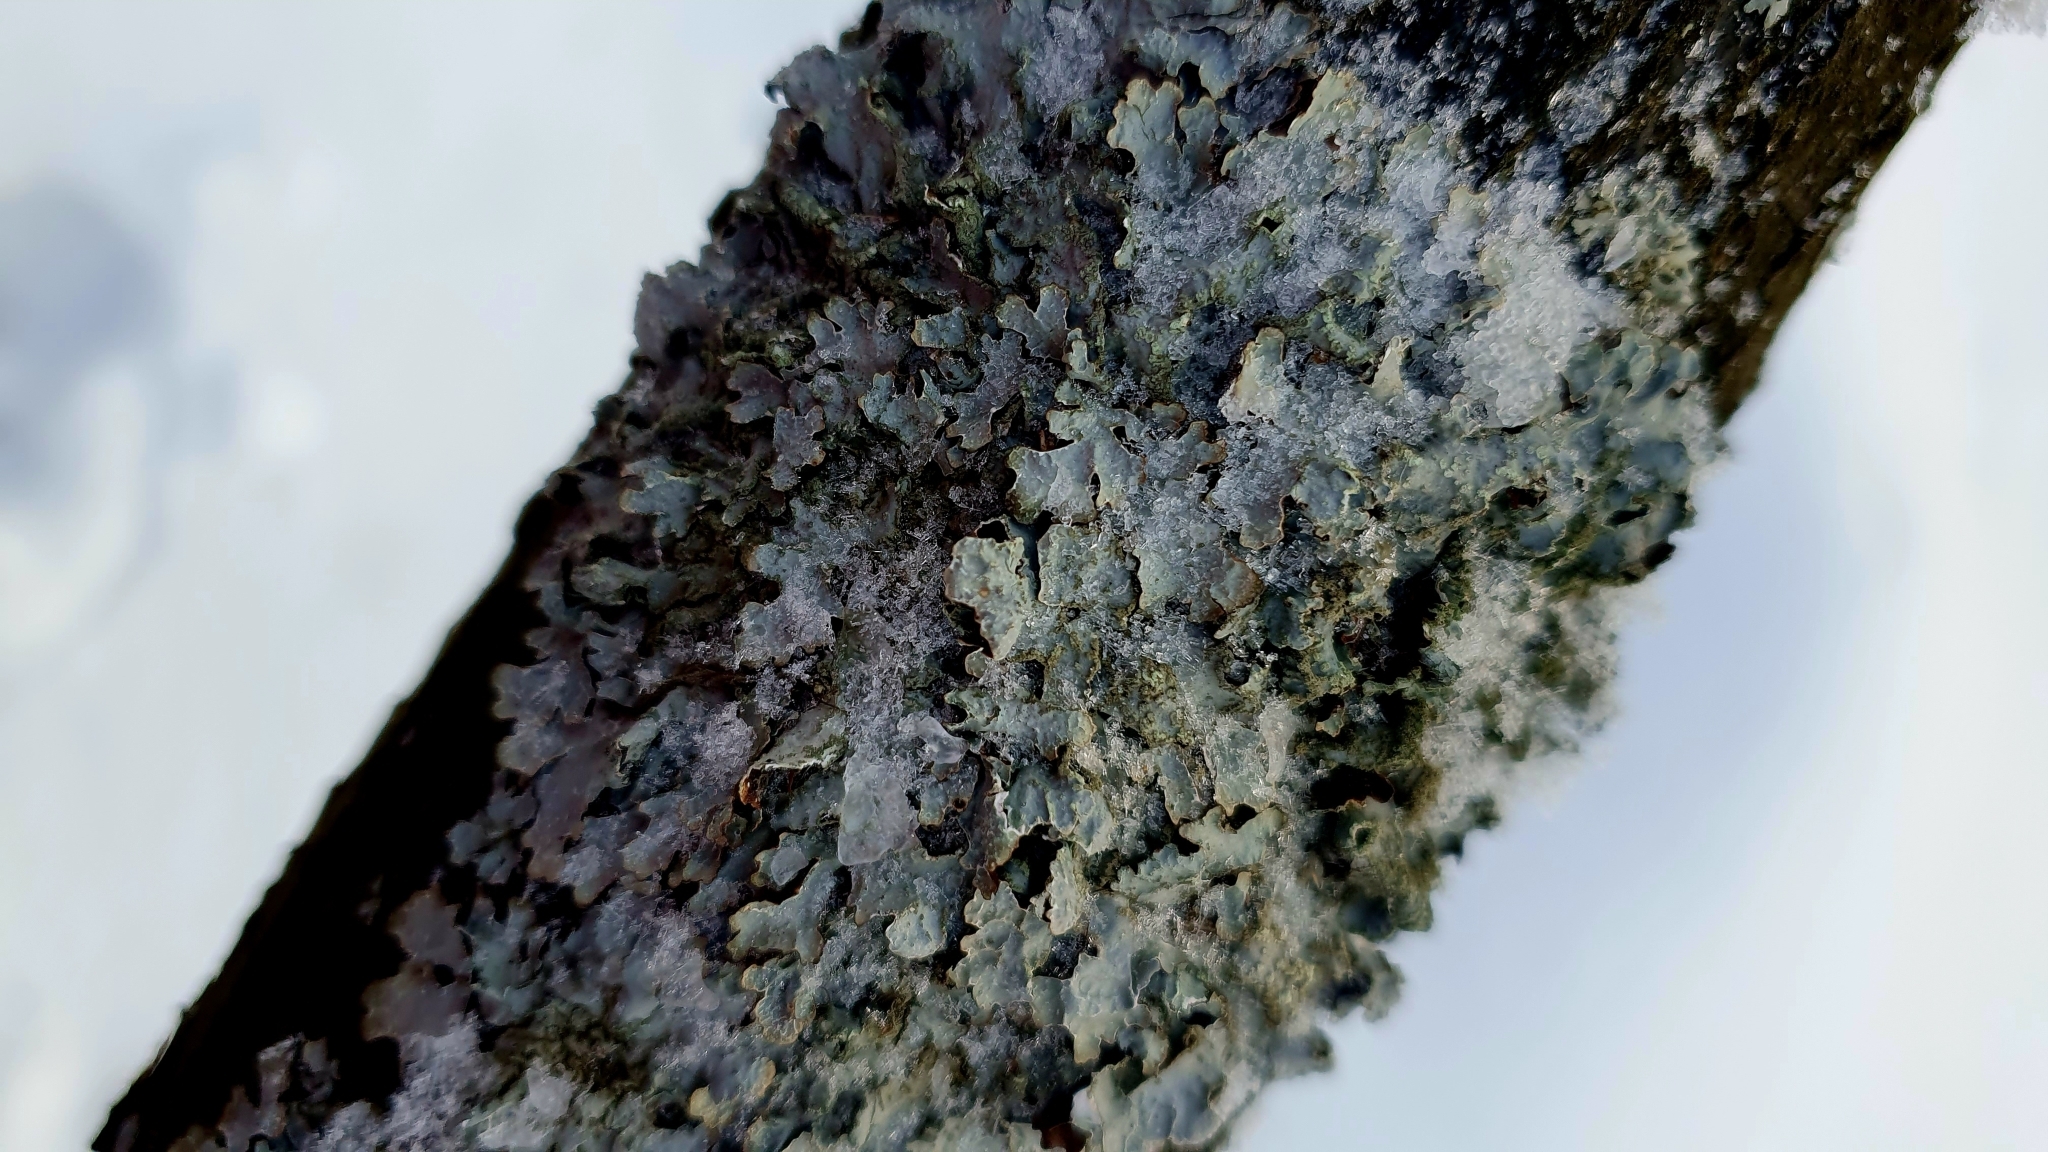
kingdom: Fungi
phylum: Ascomycota
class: Lecanoromycetes
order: Lecanorales
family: Parmeliaceae
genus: Parmelia
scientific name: Parmelia sulcata
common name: Netted shield lichen
